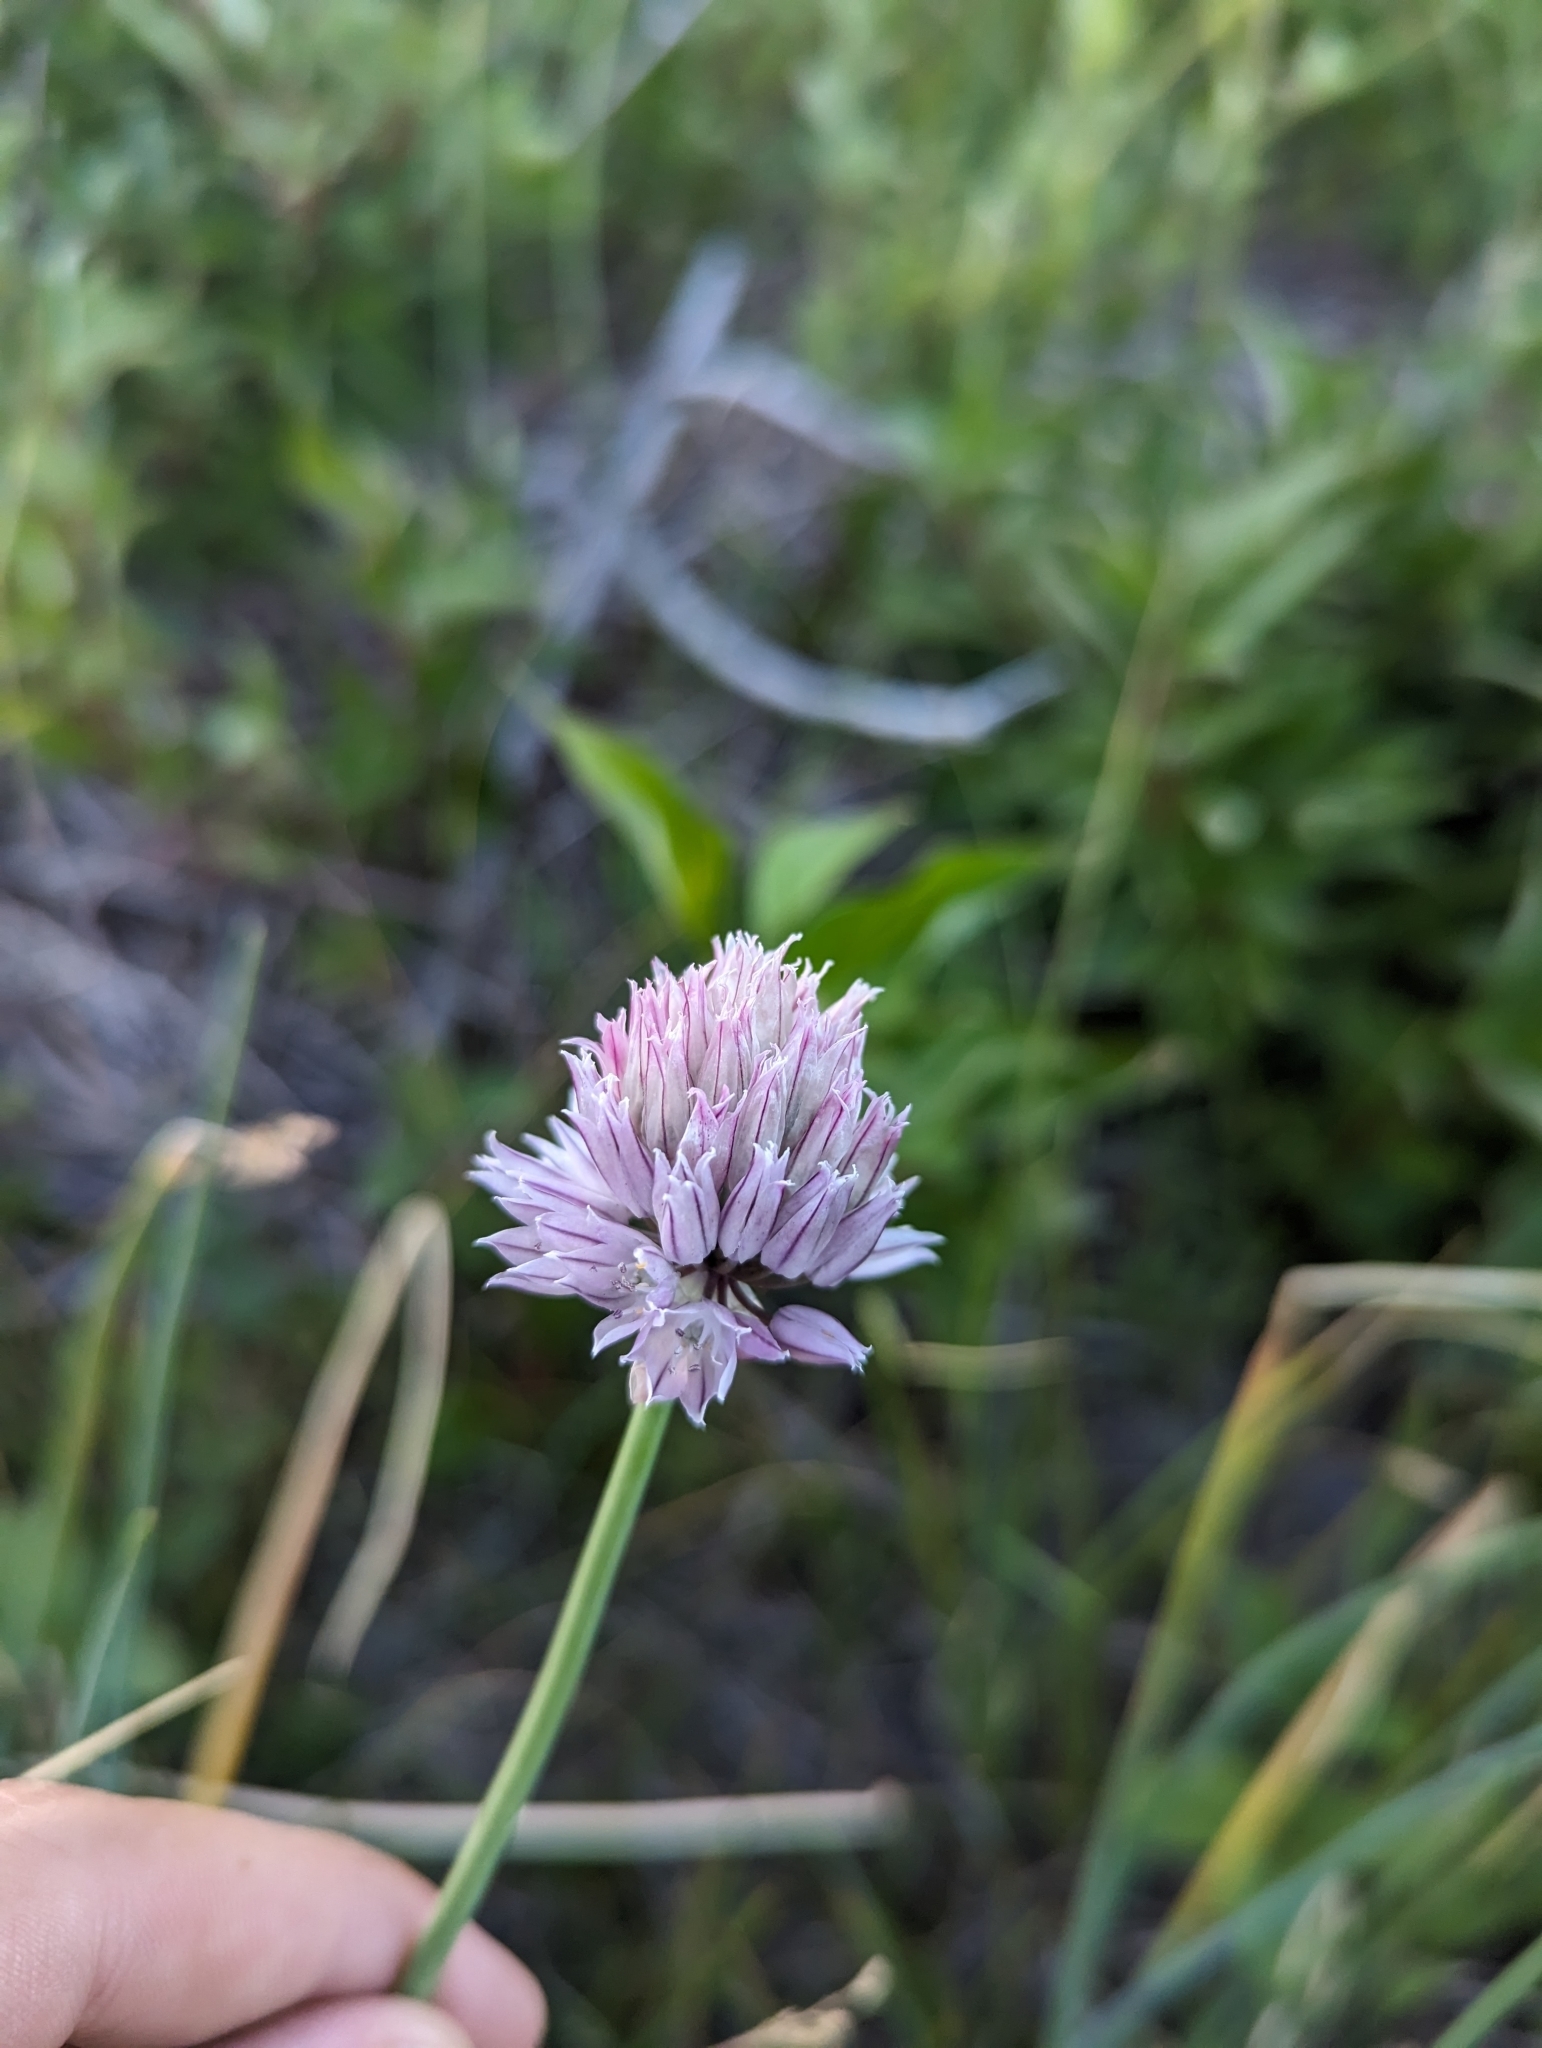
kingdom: Plantae
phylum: Tracheophyta
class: Liliopsida
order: Asparagales
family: Amaryllidaceae
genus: Allium
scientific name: Allium schoenoprasum
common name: Chives
